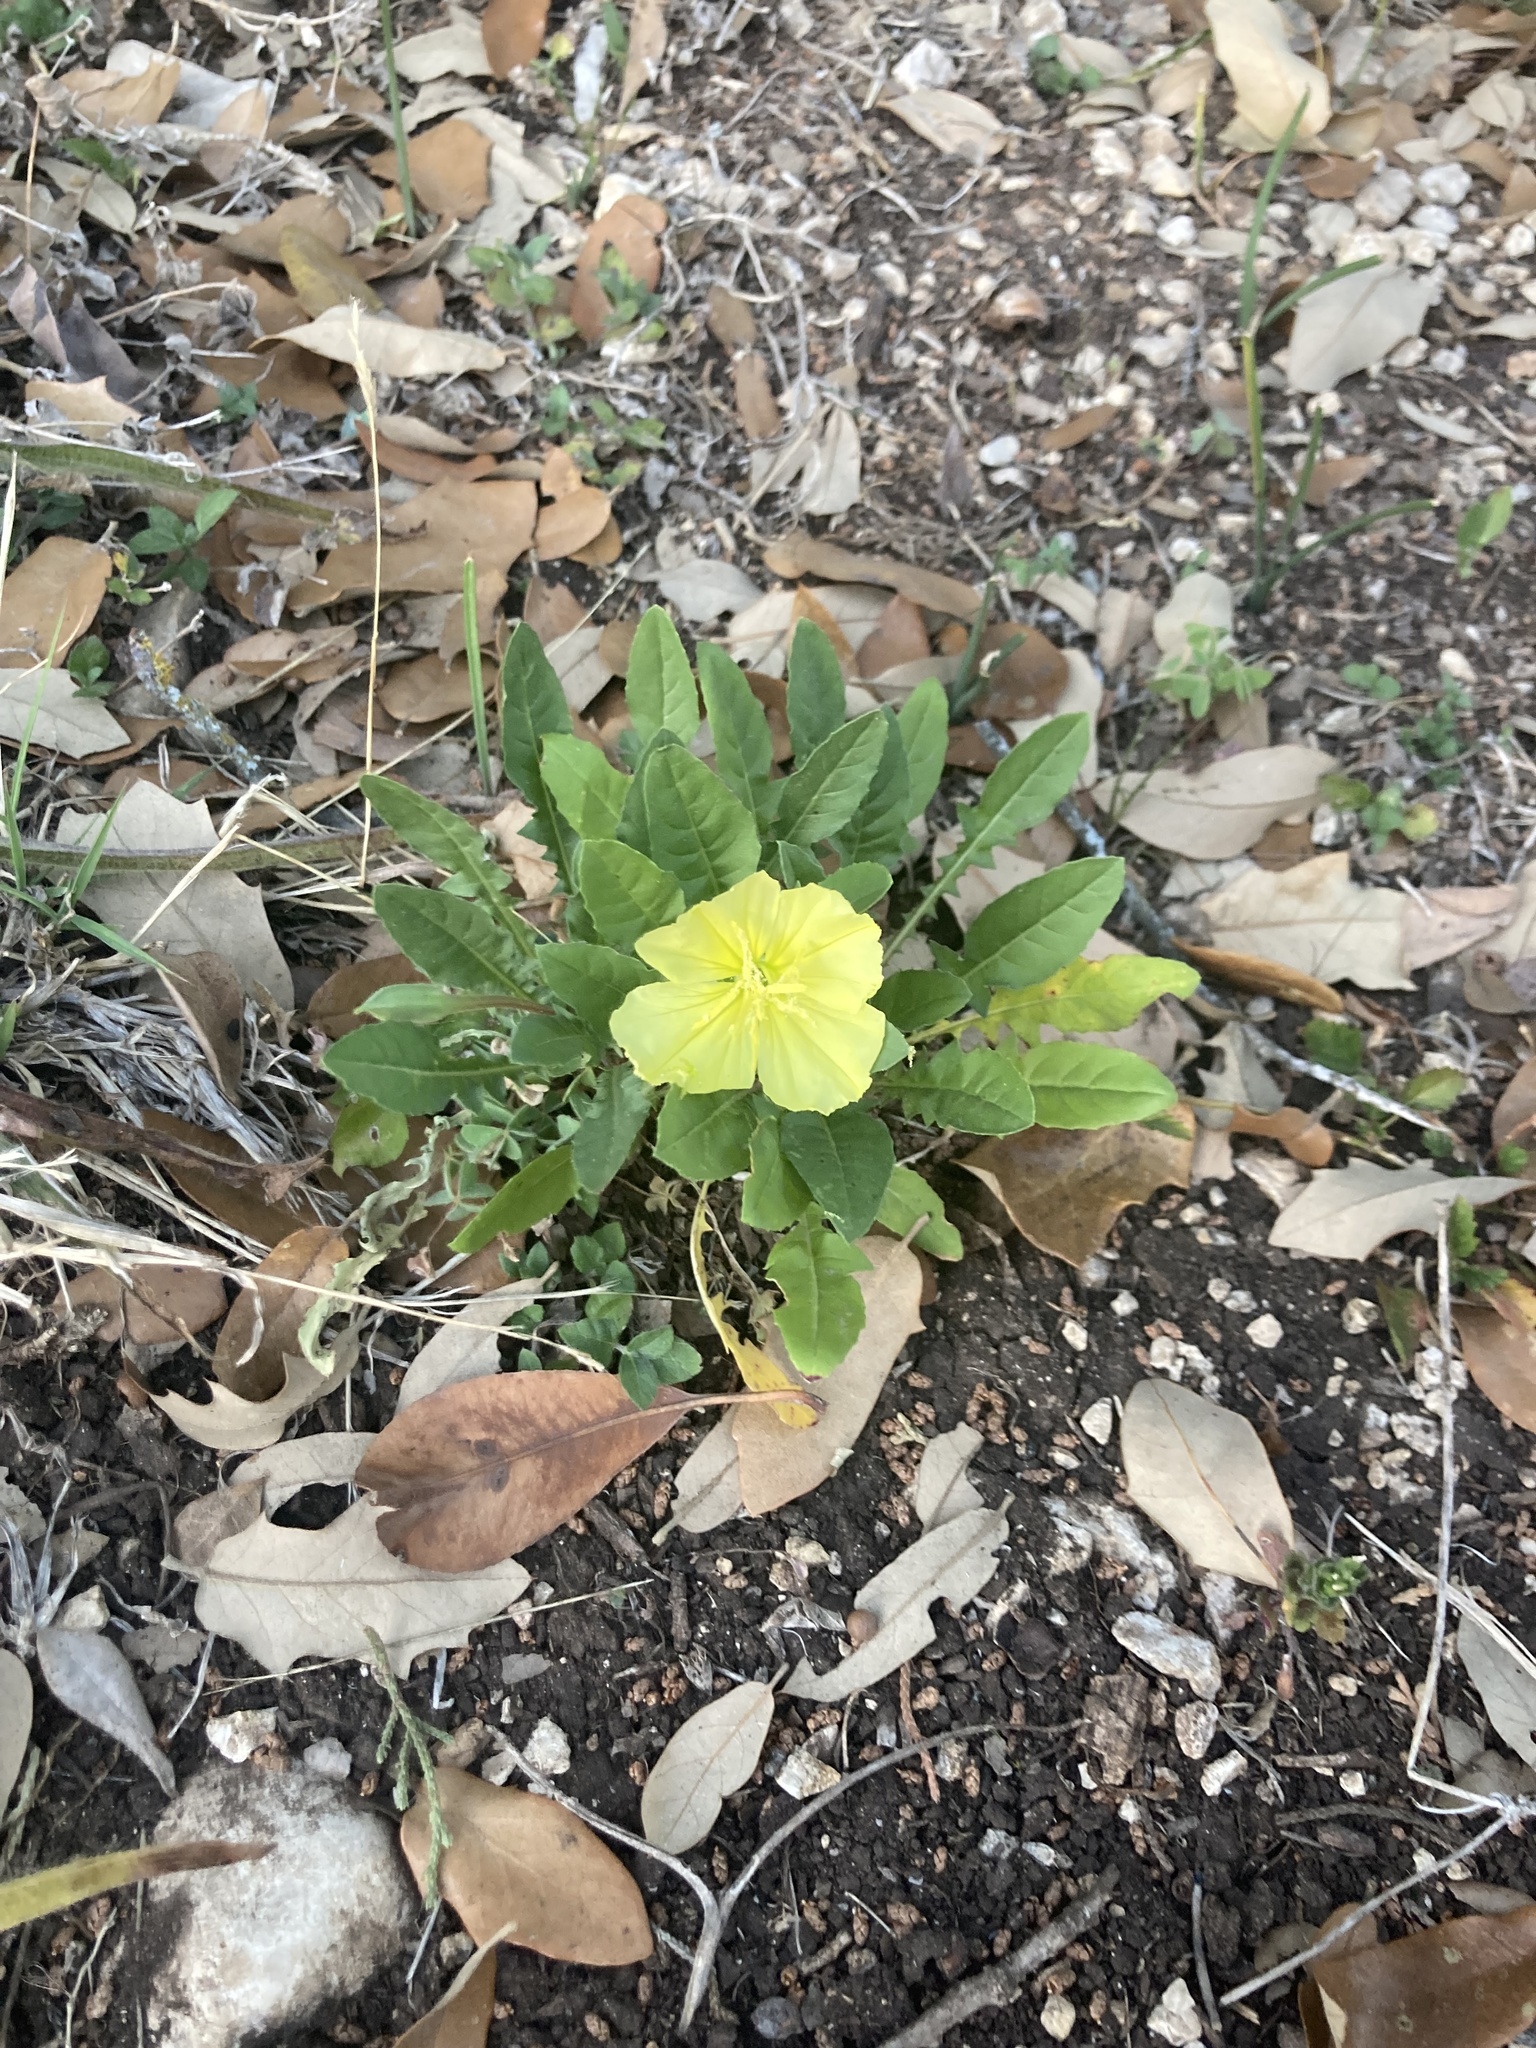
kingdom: Plantae
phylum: Tracheophyta
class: Magnoliopsida
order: Myrtales
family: Onagraceae
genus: Oenothera
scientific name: Oenothera triloba
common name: Sessile evening-primrose
